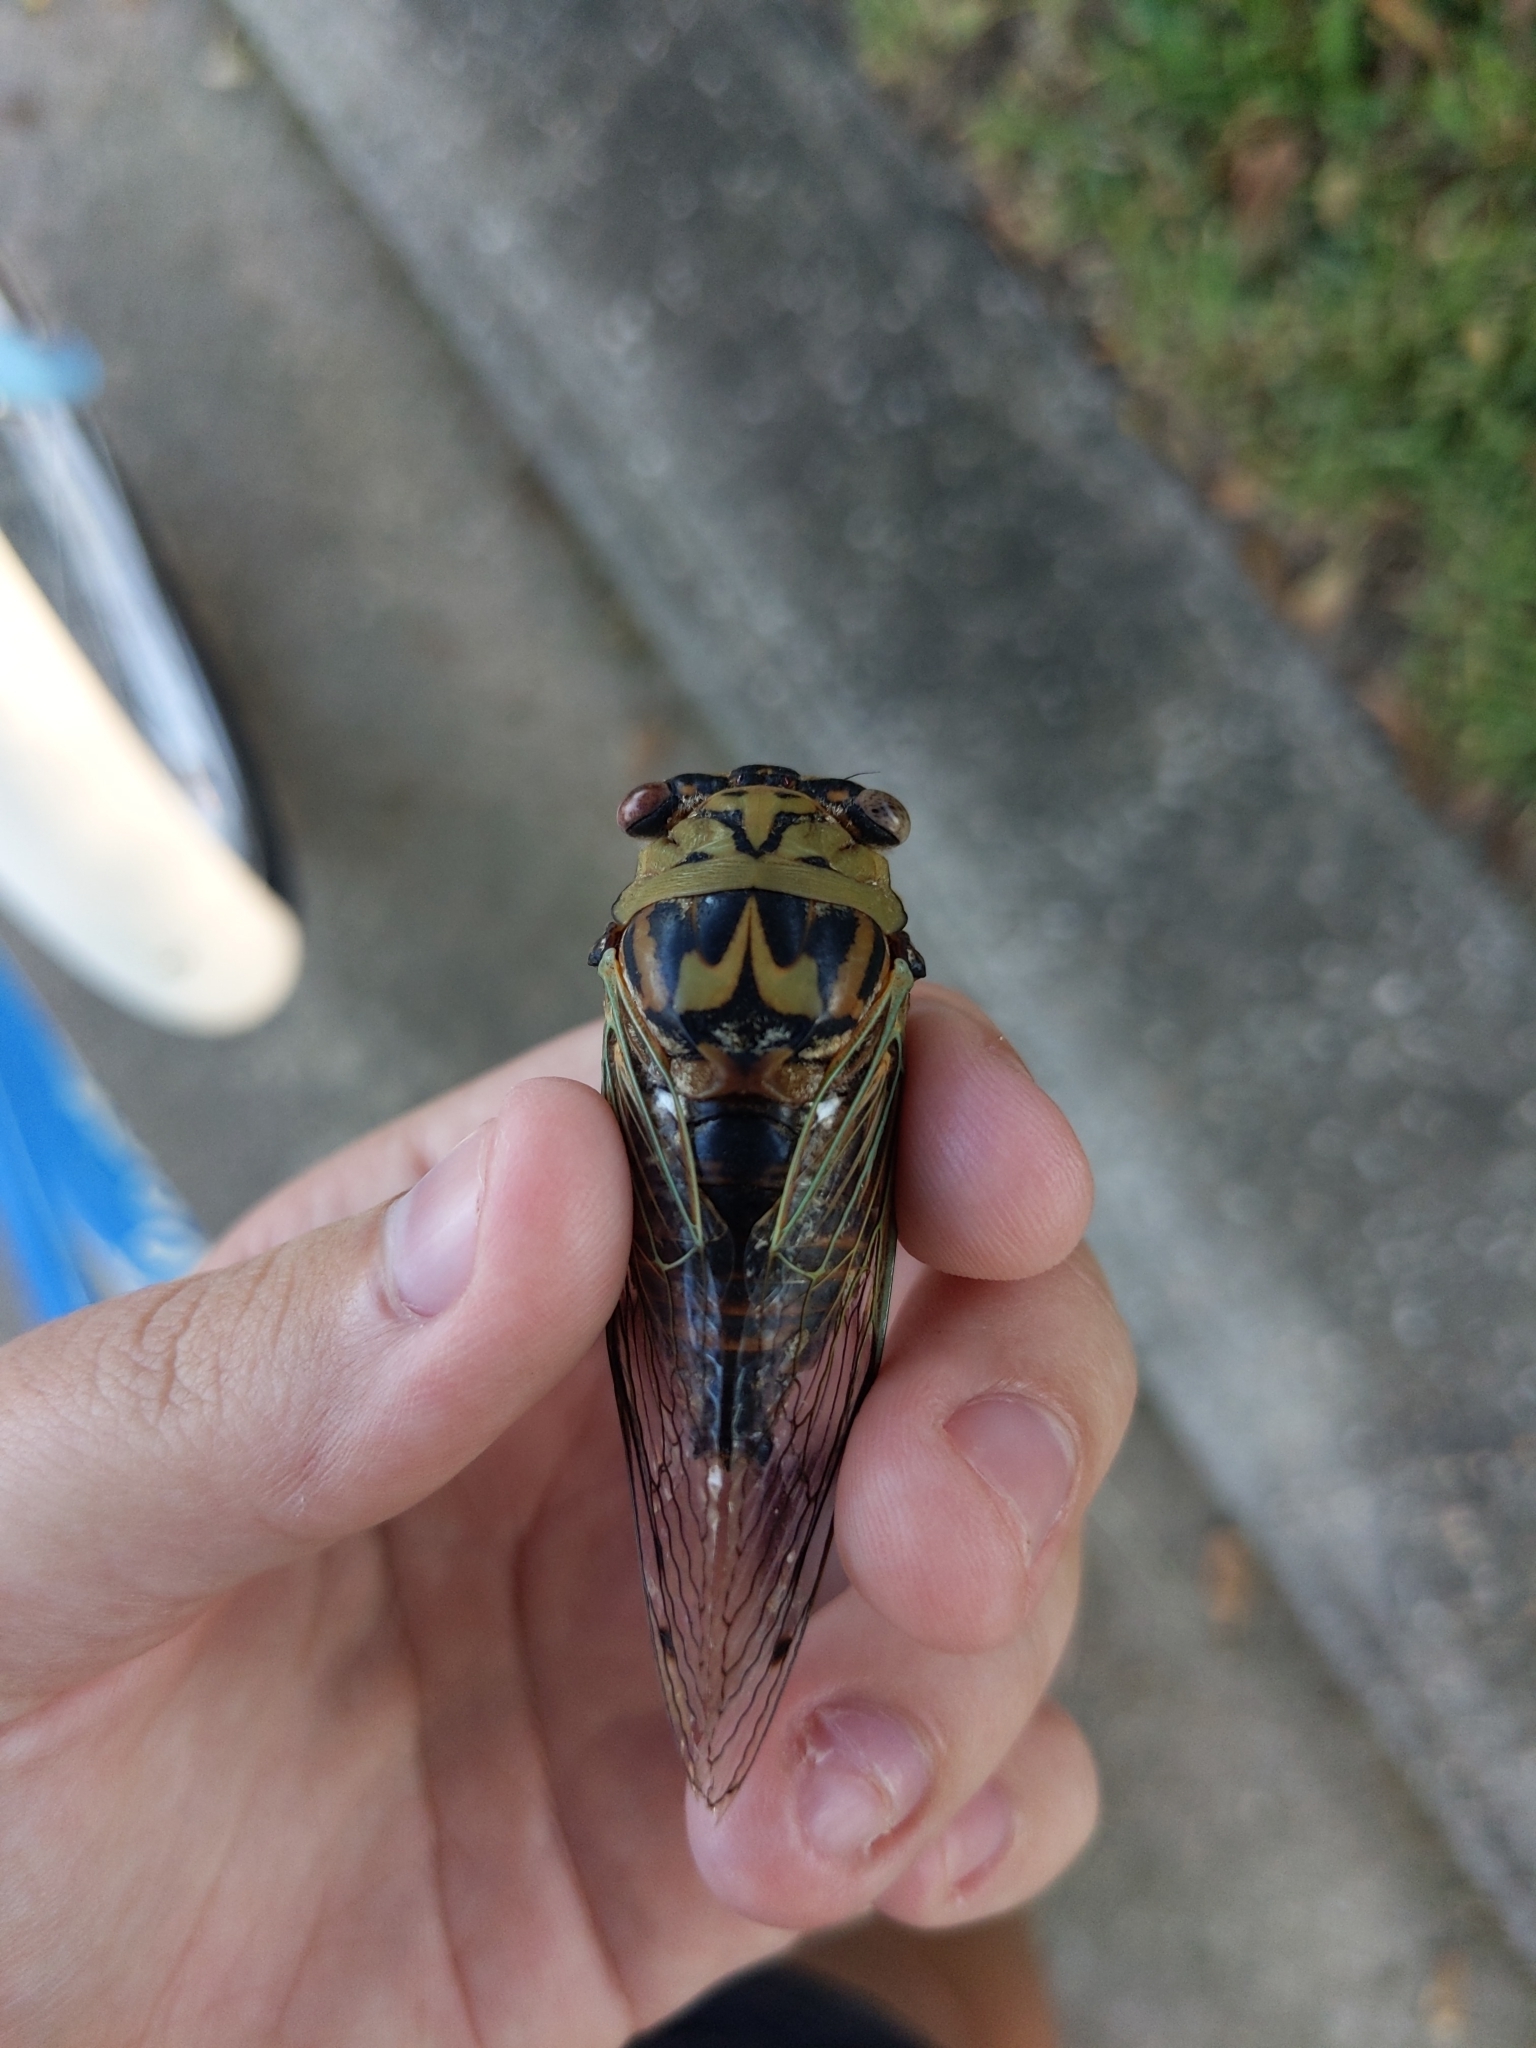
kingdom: Animalia
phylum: Arthropoda
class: Insecta
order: Hemiptera
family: Cicadidae
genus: Megatibicen
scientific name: Megatibicen resh
